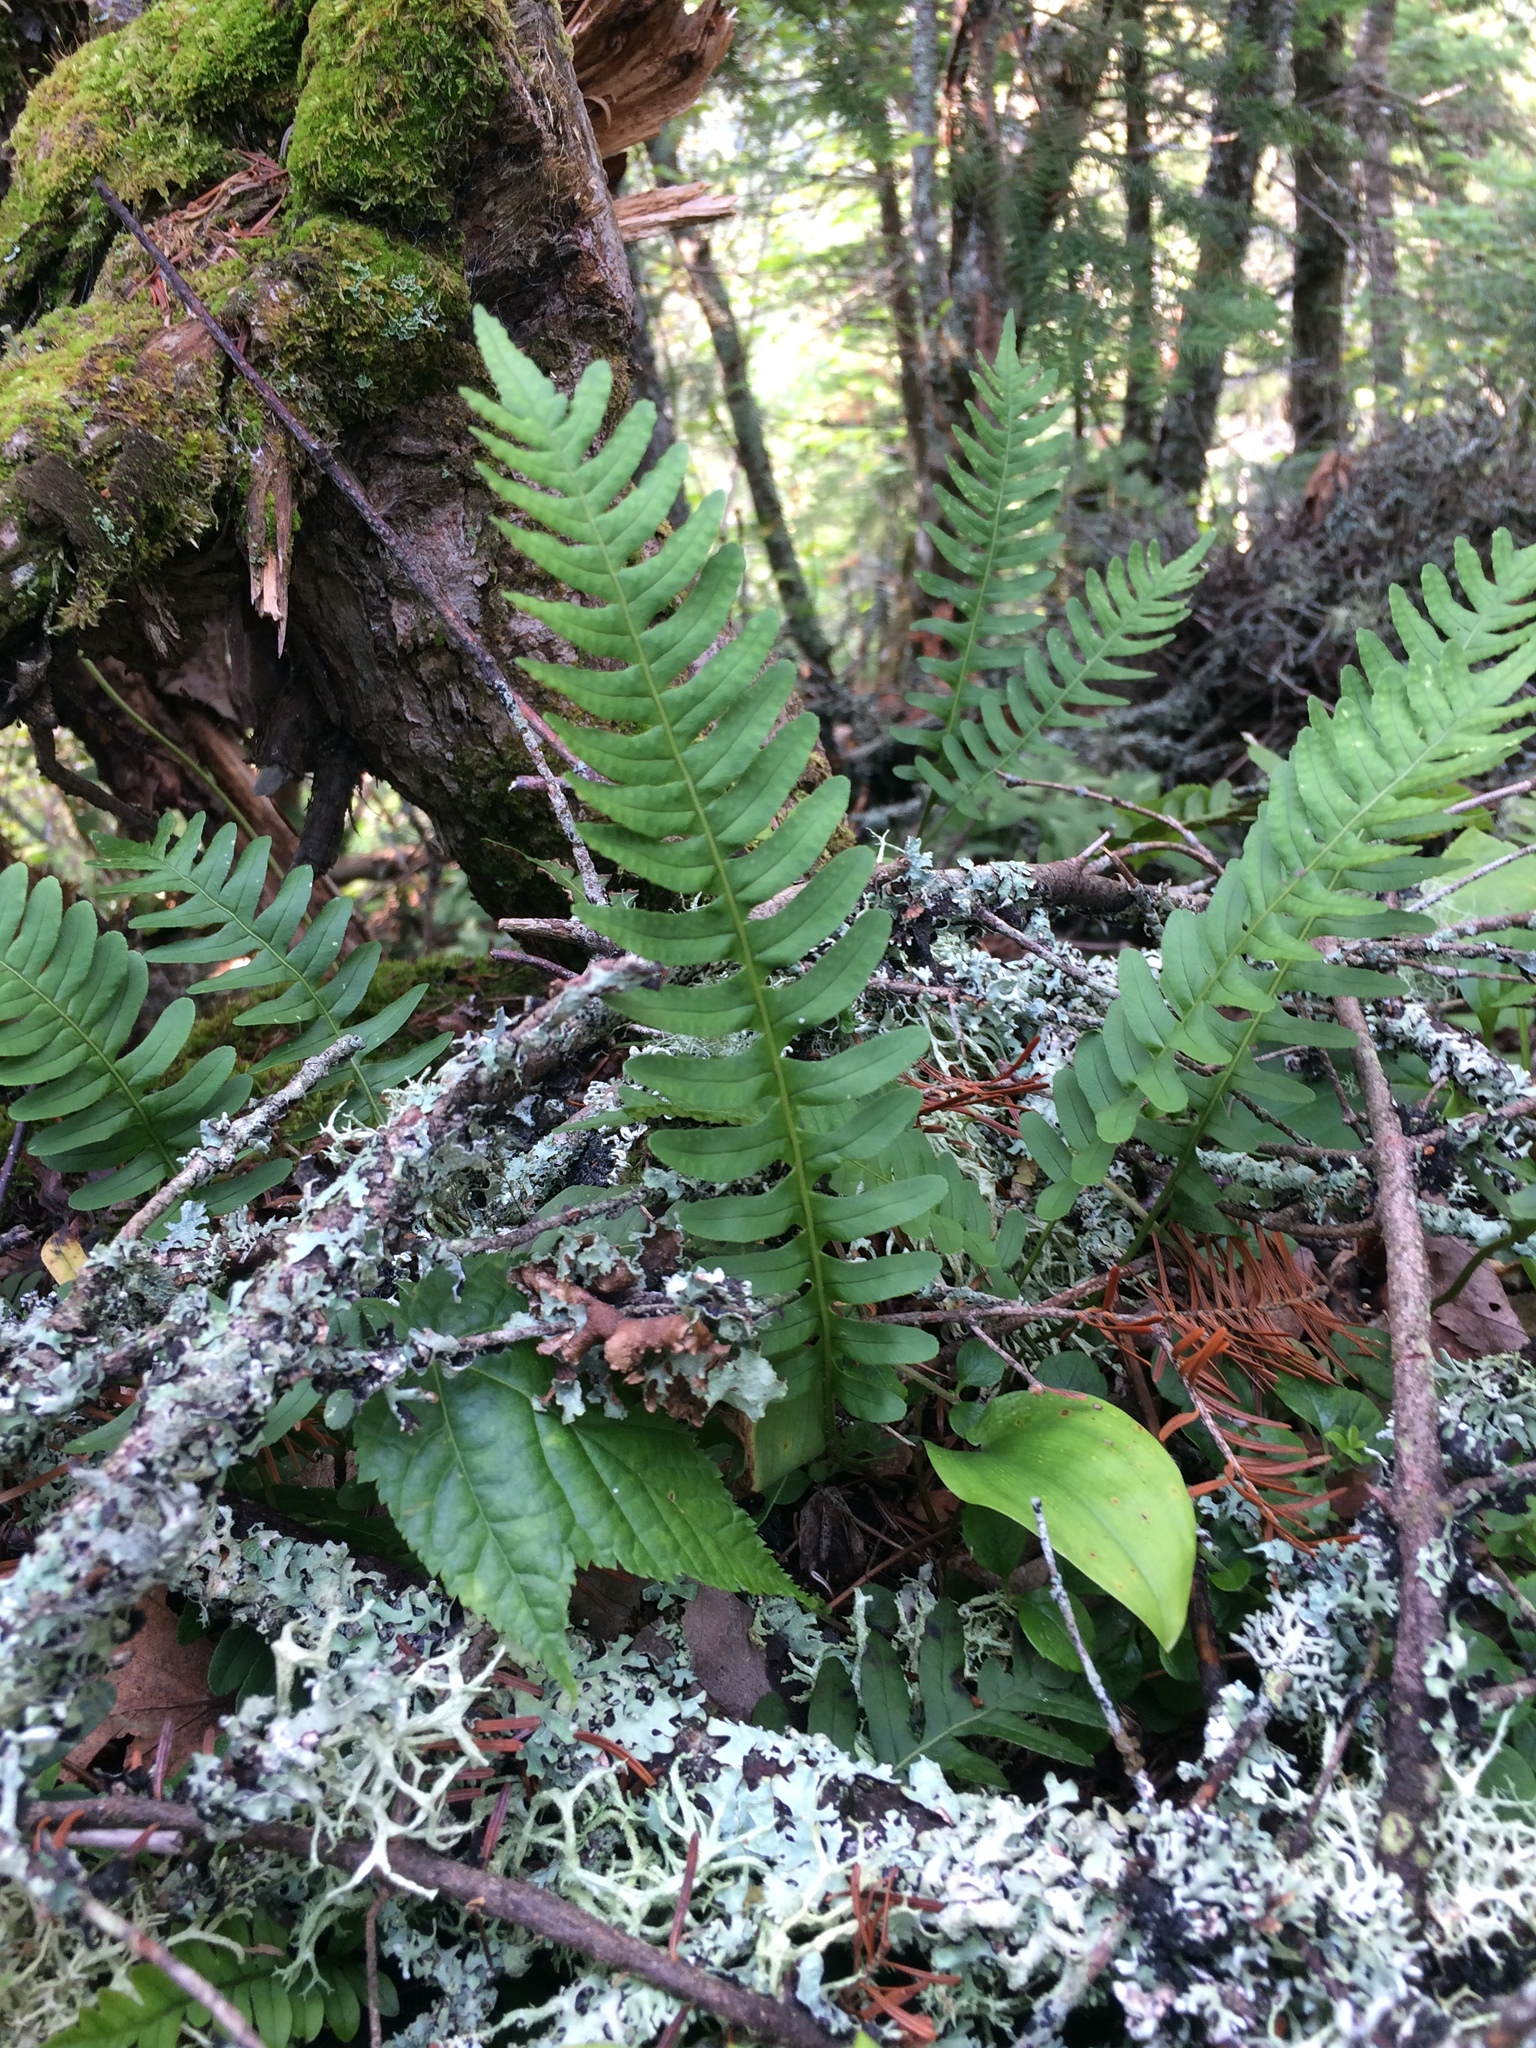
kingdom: Plantae
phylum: Tracheophyta
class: Polypodiopsida
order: Polypodiales
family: Polypodiaceae
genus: Polypodium
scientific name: Polypodium virginianum
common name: American wall fern
